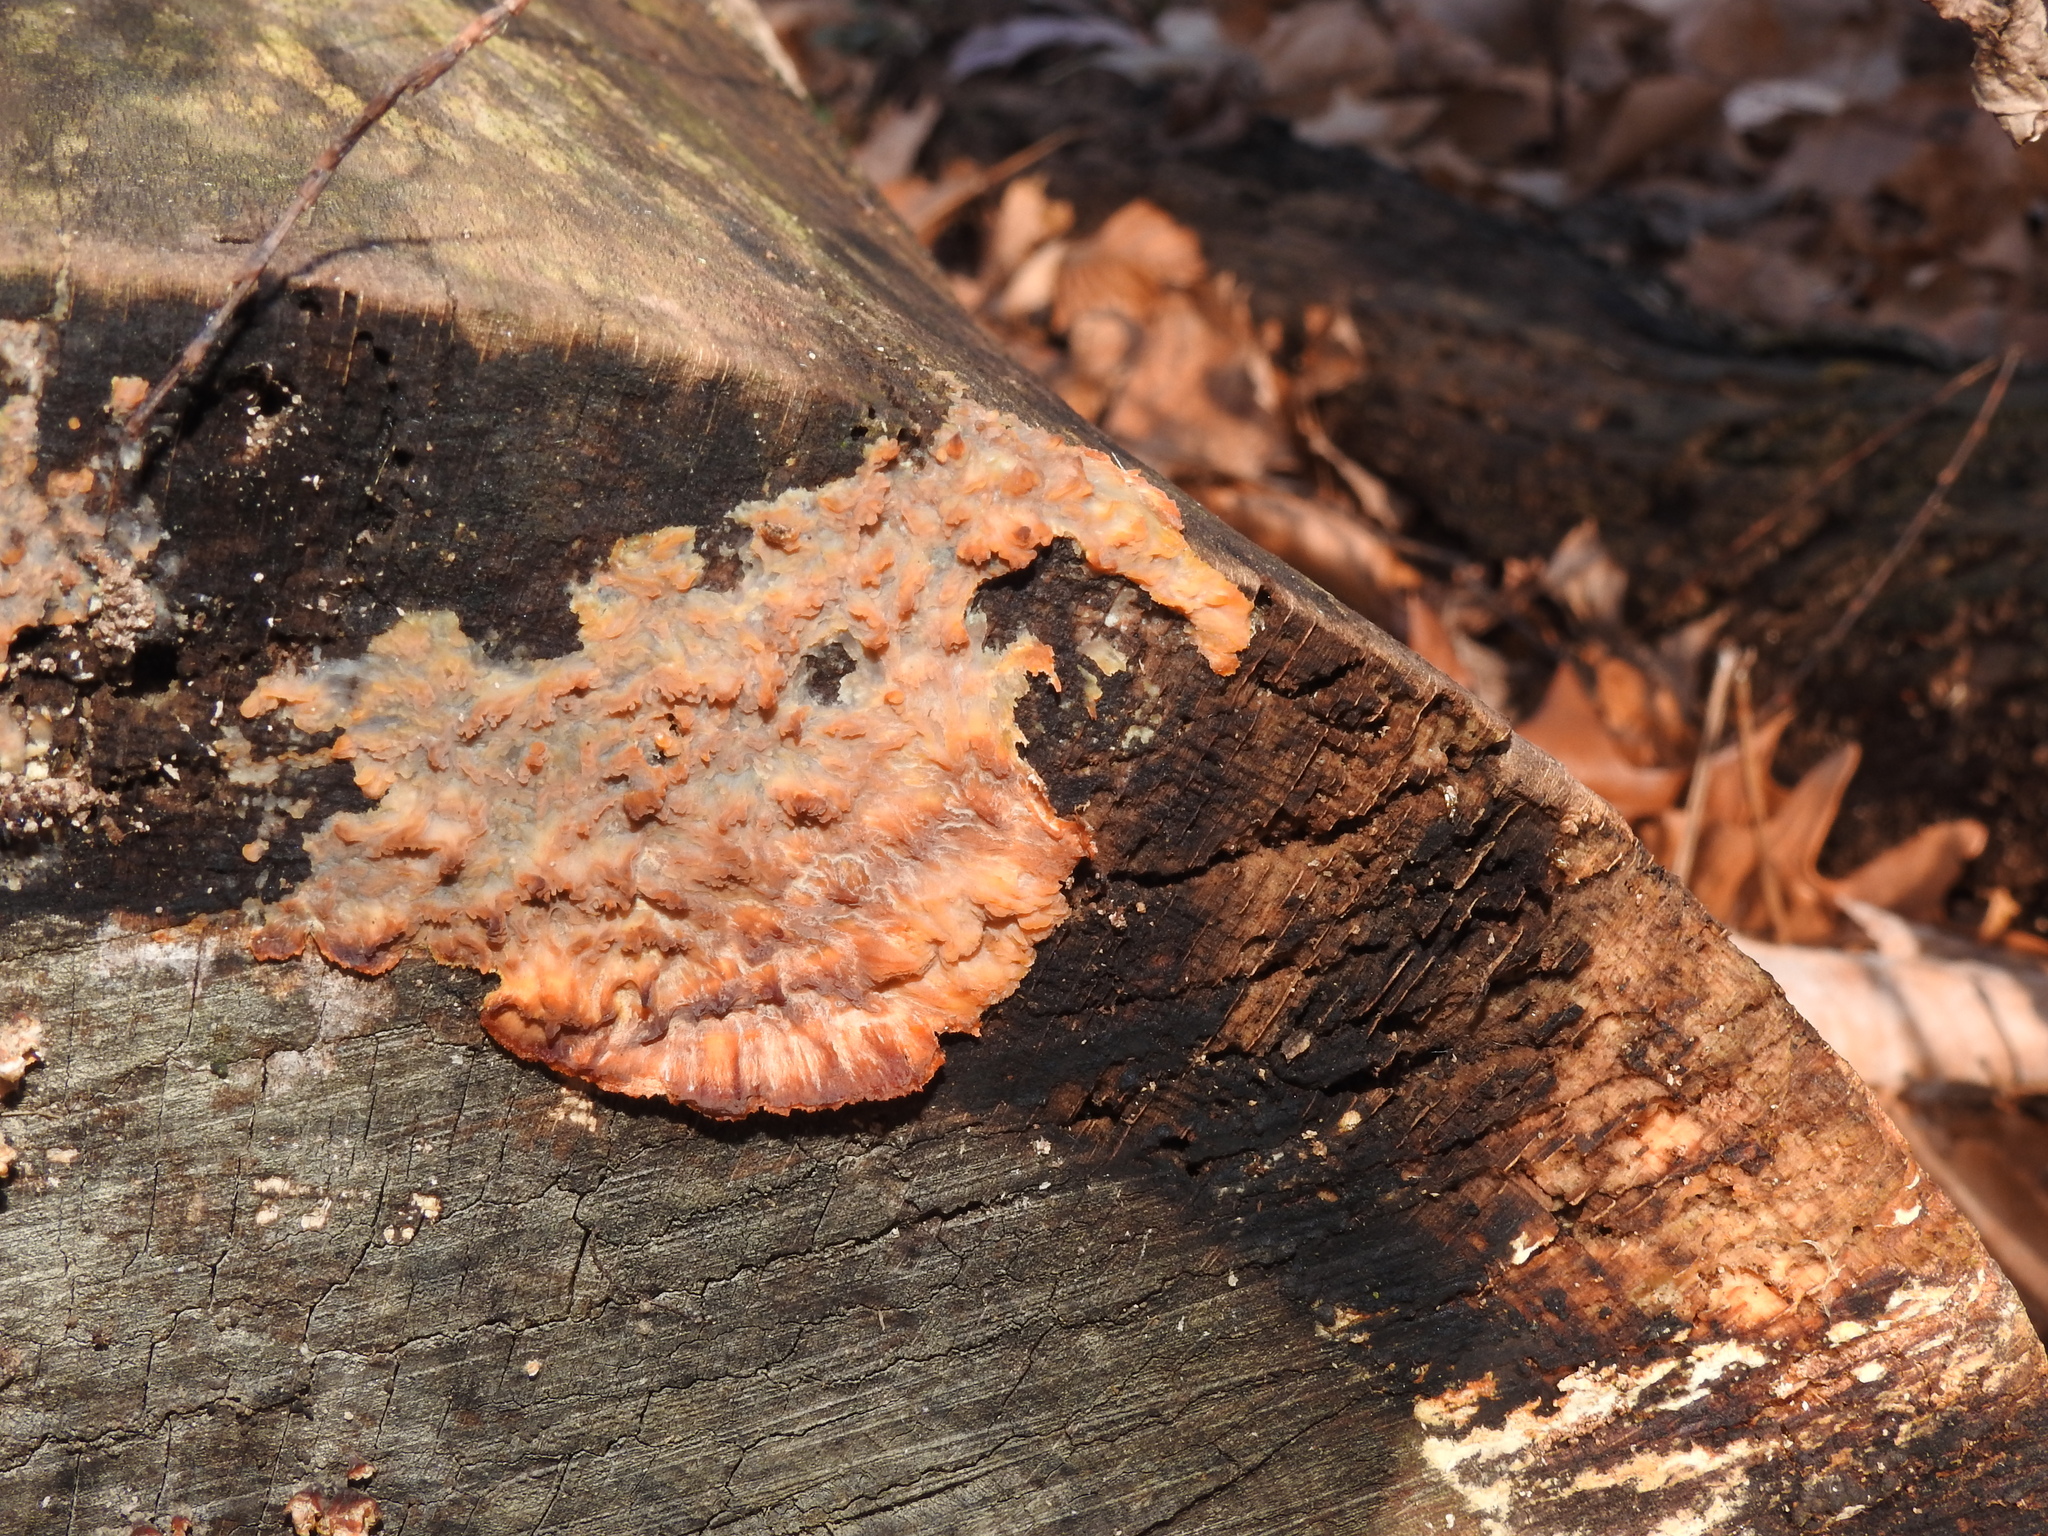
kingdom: Fungi
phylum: Basidiomycota
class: Agaricomycetes
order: Polyporales
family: Meruliaceae
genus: Phlebia
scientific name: Phlebia radiata
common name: Wrinkled crust
